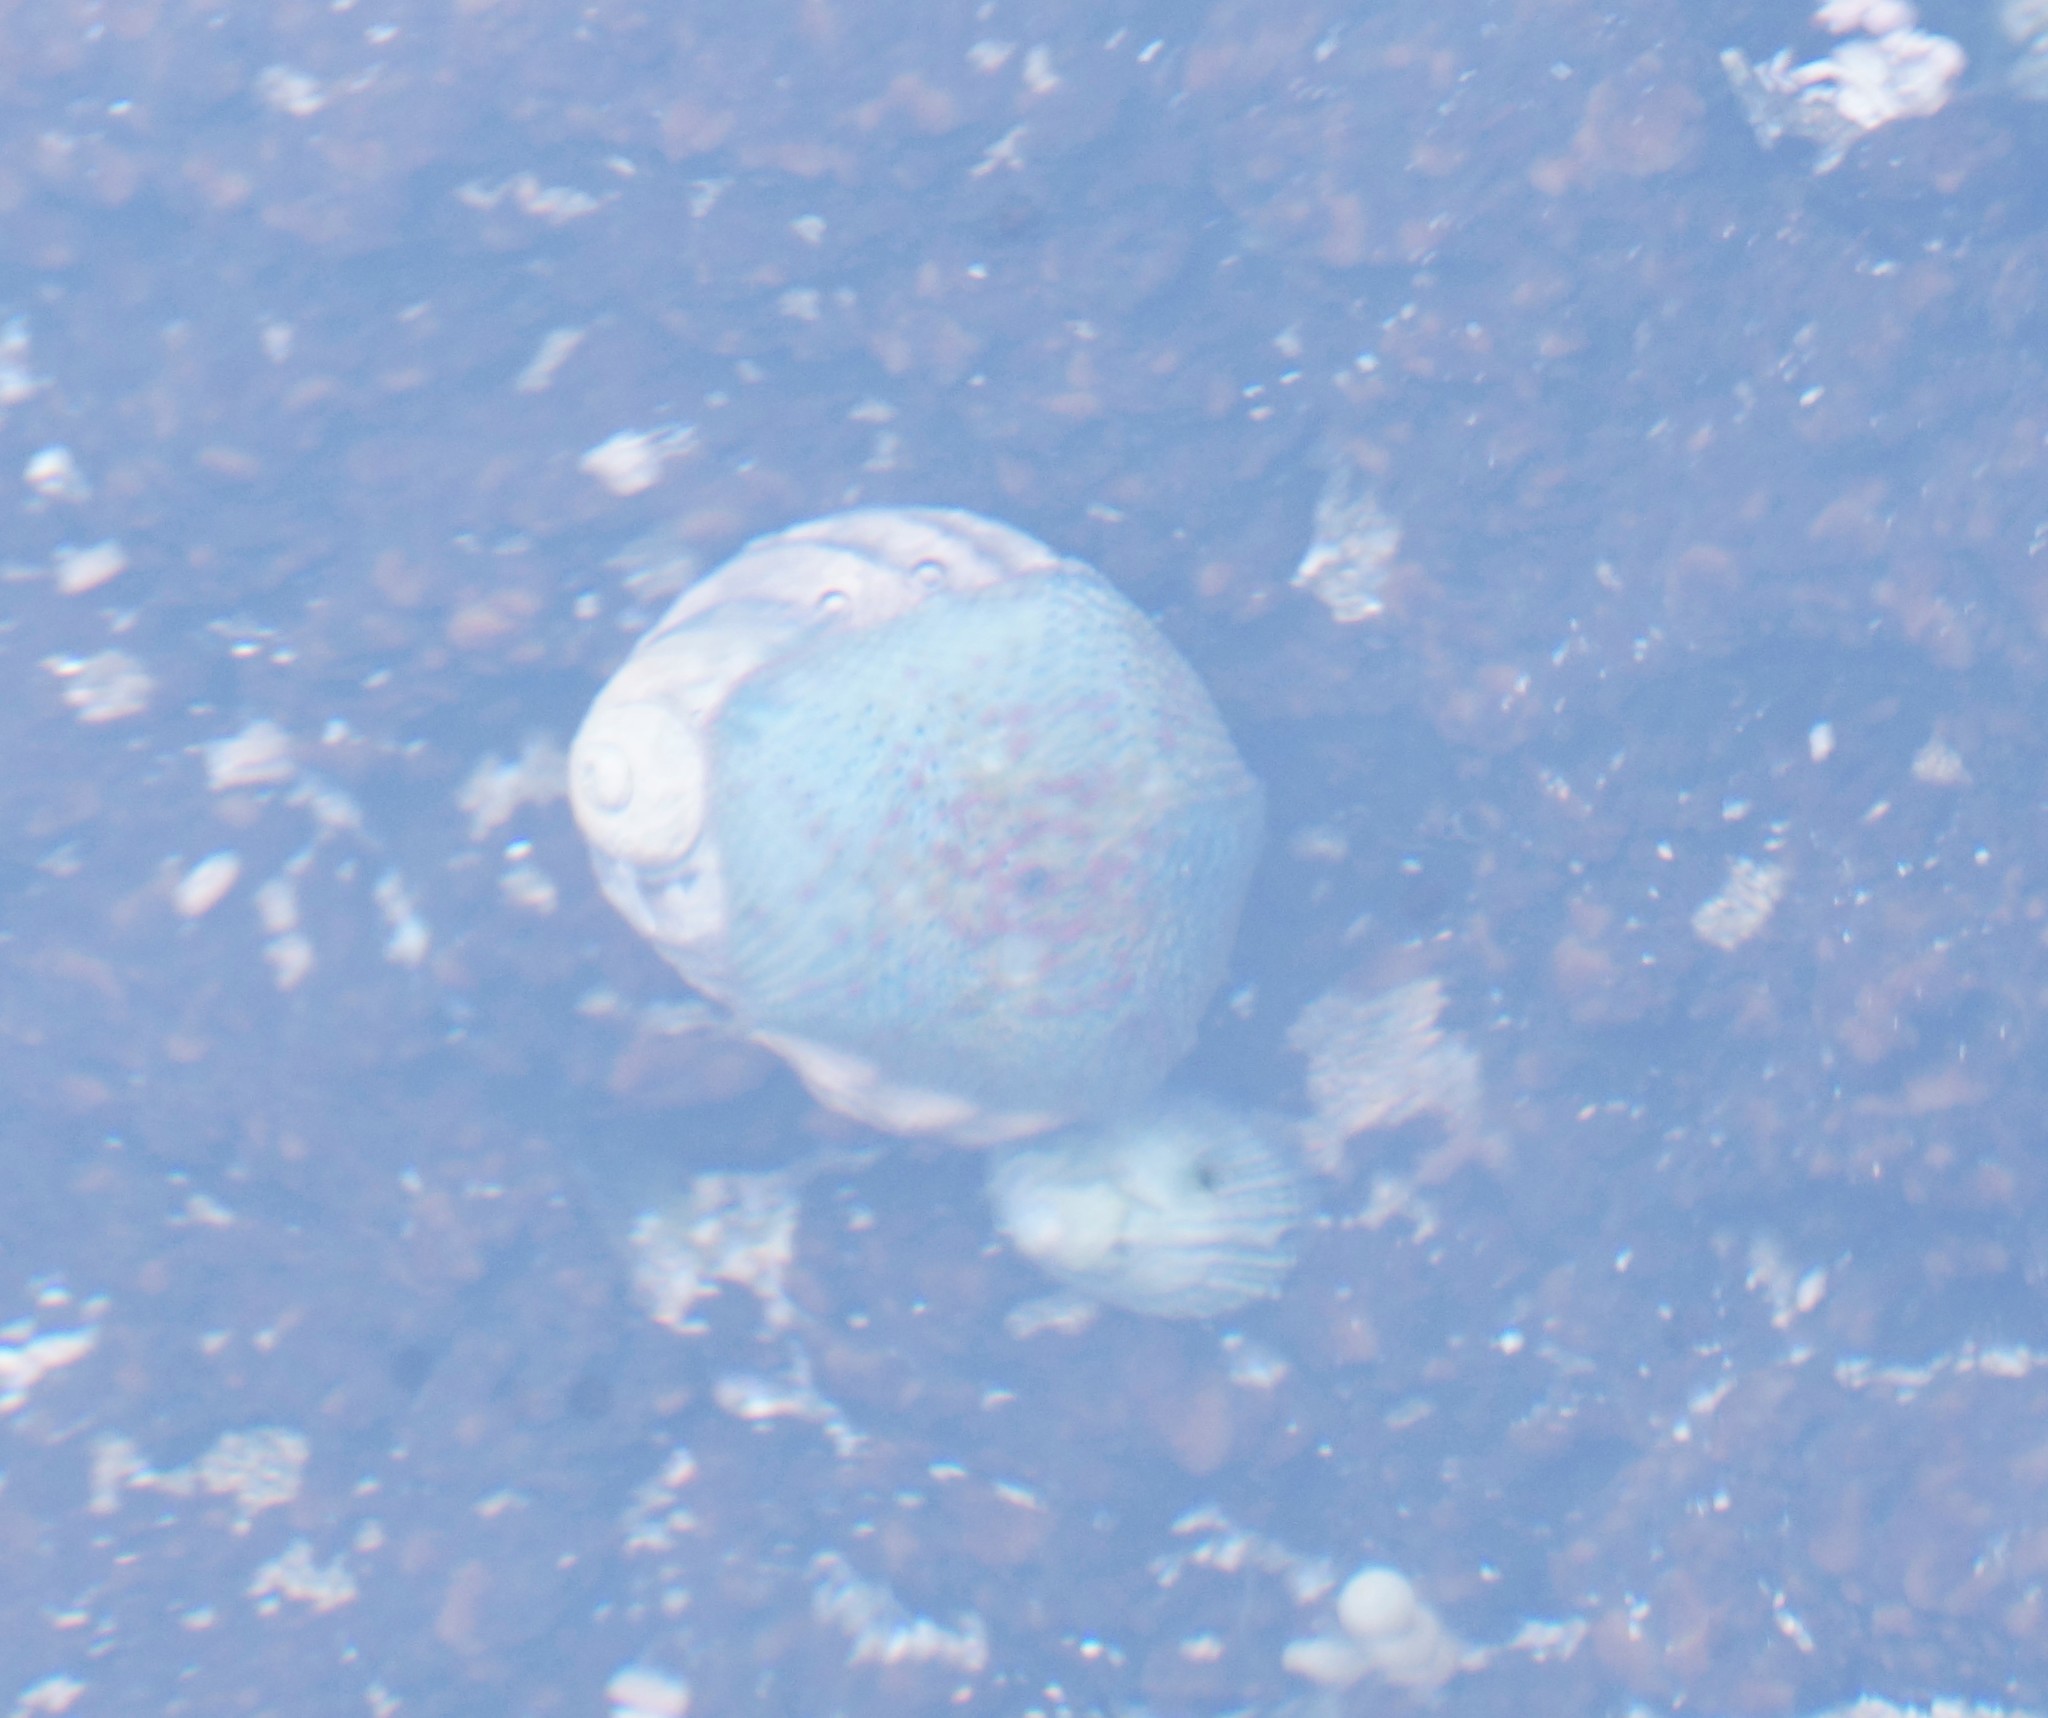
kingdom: Animalia
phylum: Echinodermata
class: Asteroidea
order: Valvatida
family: Asterinidae
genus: Parvulastra
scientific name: Parvulastra exigua
